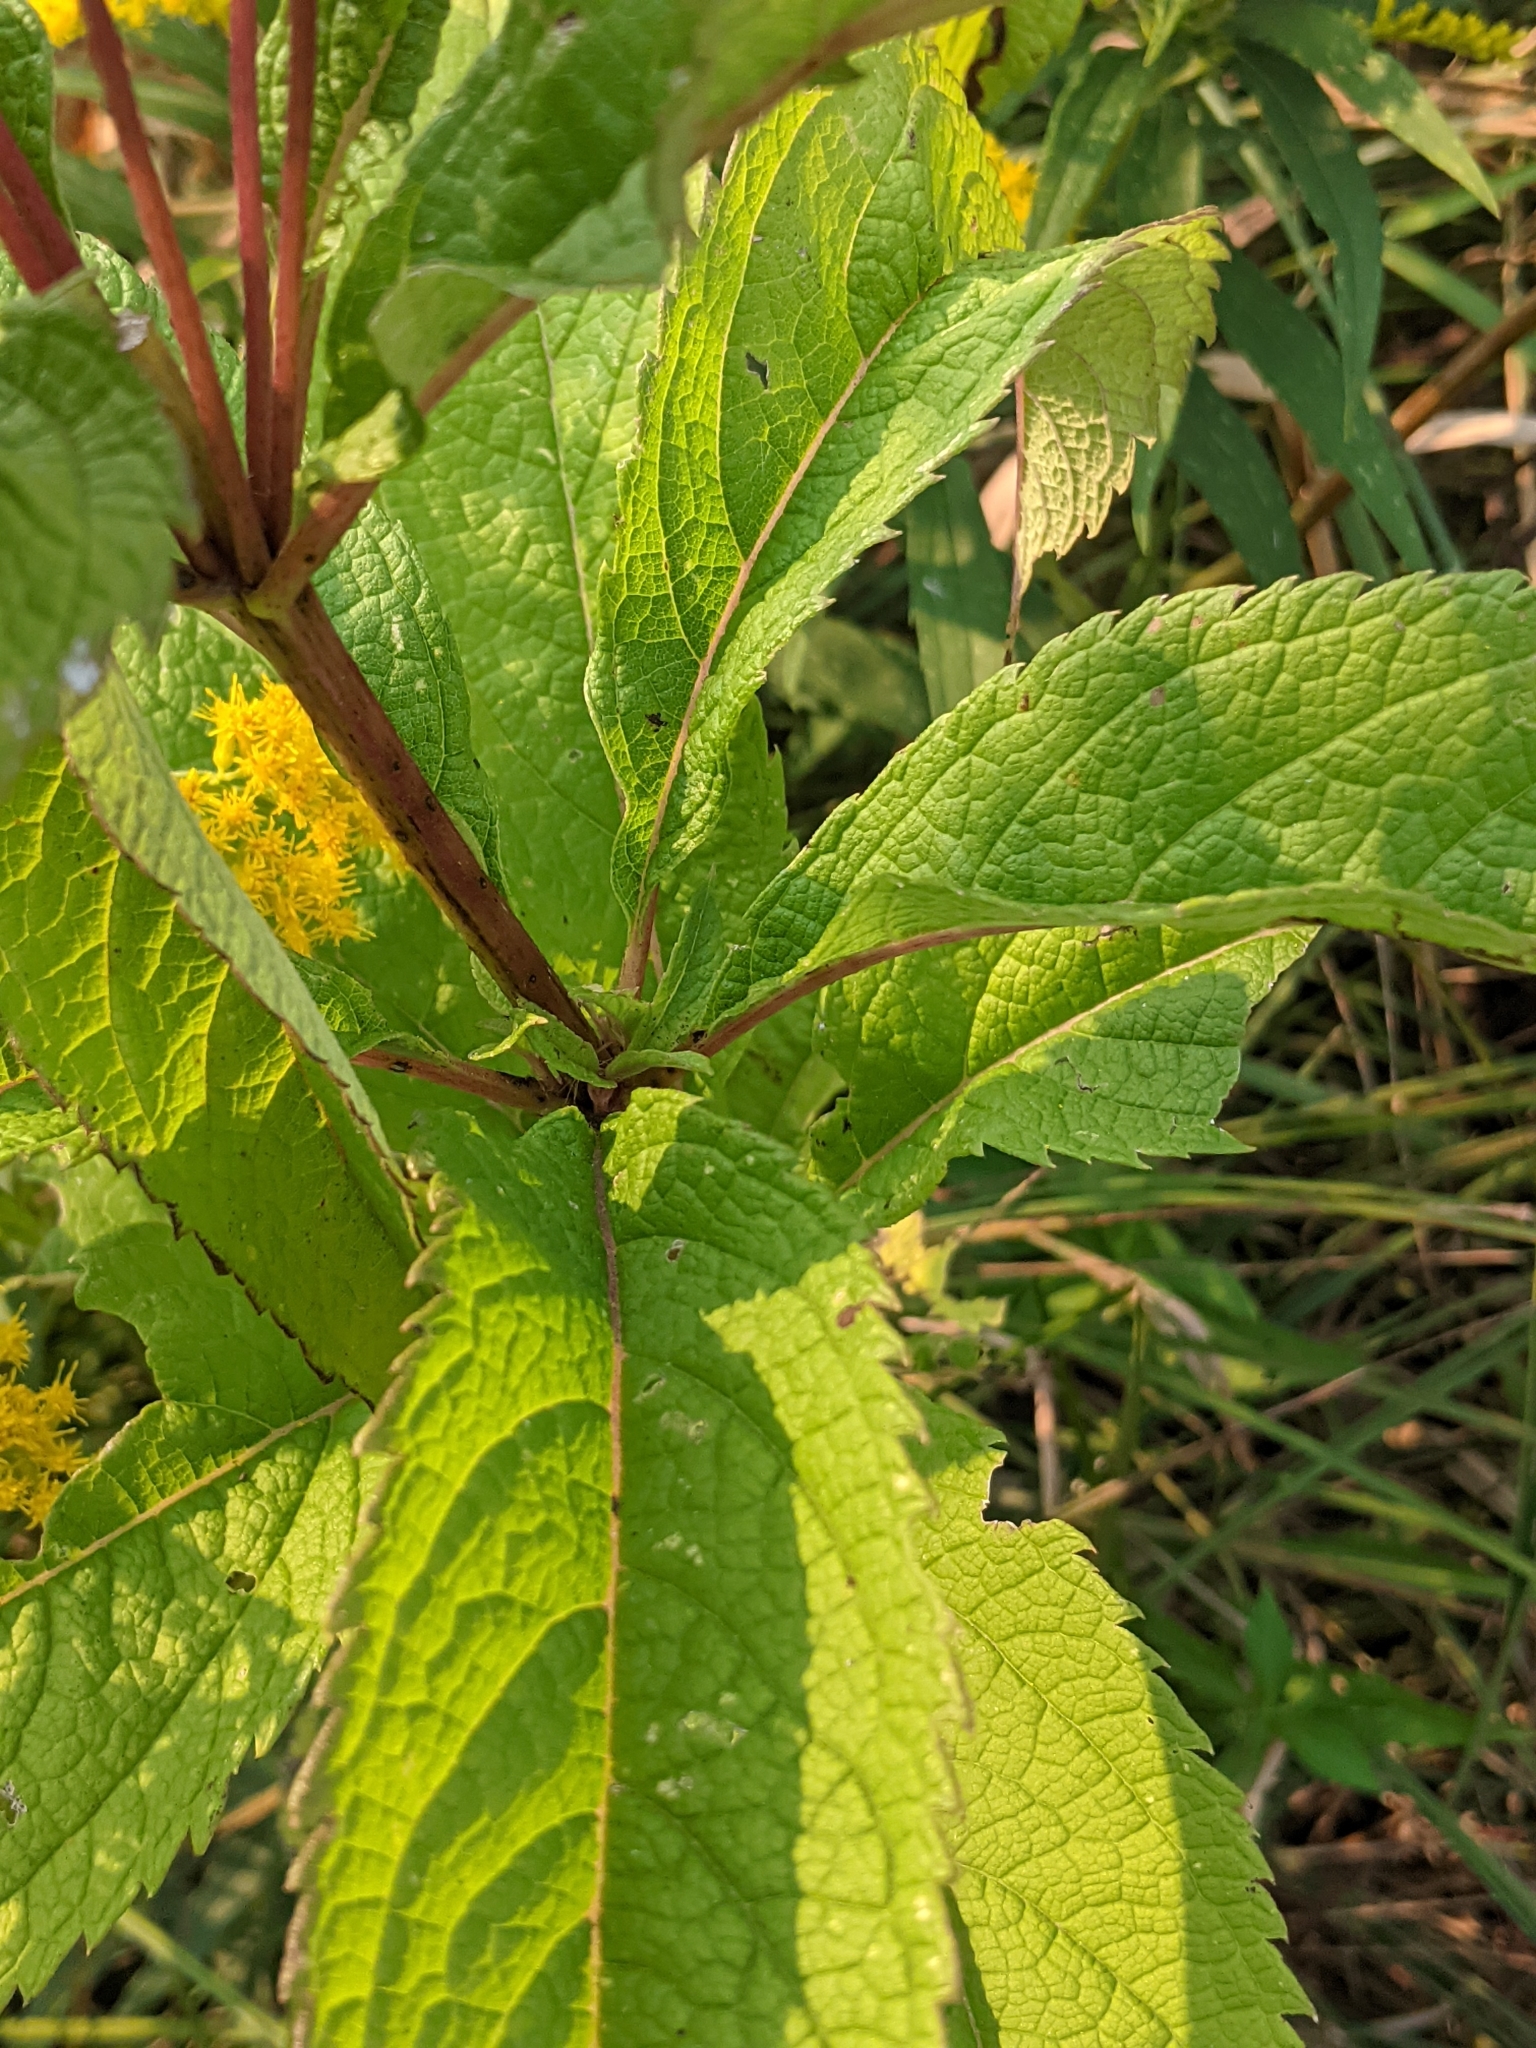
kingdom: Plantae
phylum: Tracheophyta
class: Magnoliopsida
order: Asterales
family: Asteraceae
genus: Eutrochium
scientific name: Eutrochium maculatum
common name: Spotted joe pye weed
